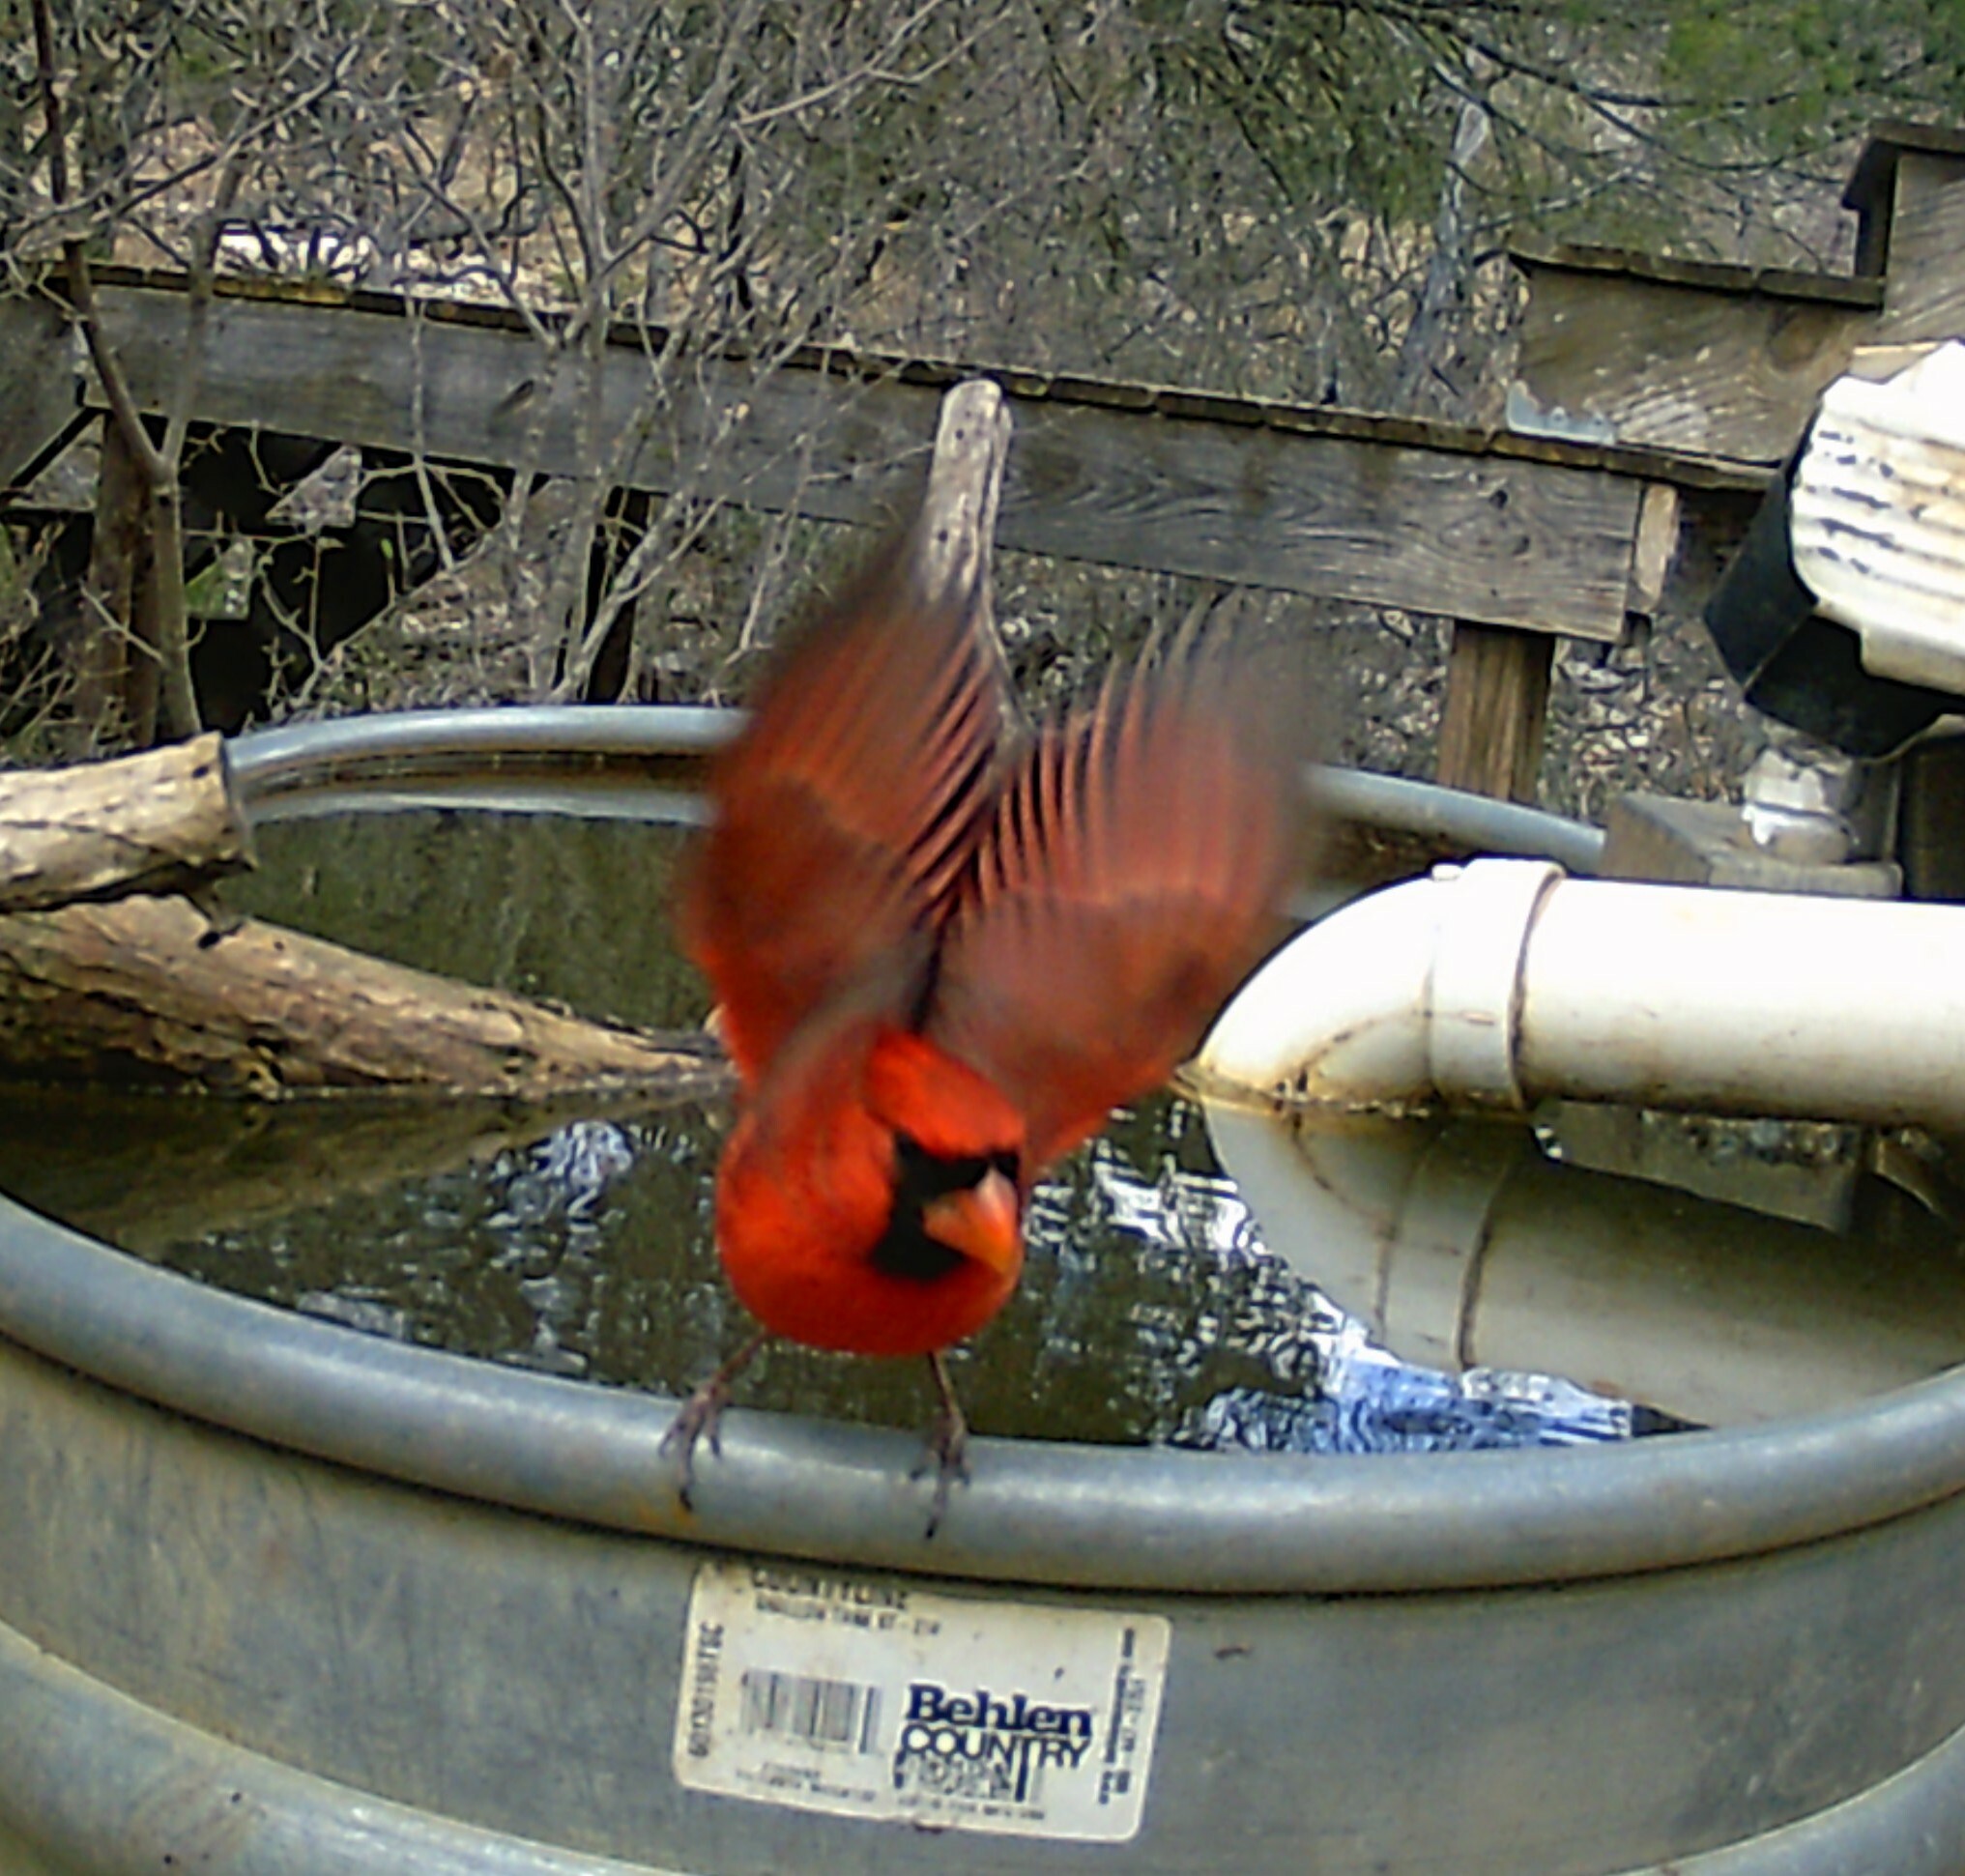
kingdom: Animalia
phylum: Chordata
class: Aves
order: Passeriformes
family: Cardinalidae
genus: Cardinalis
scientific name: Cardinalis cardinalis
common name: Northern cardinal
